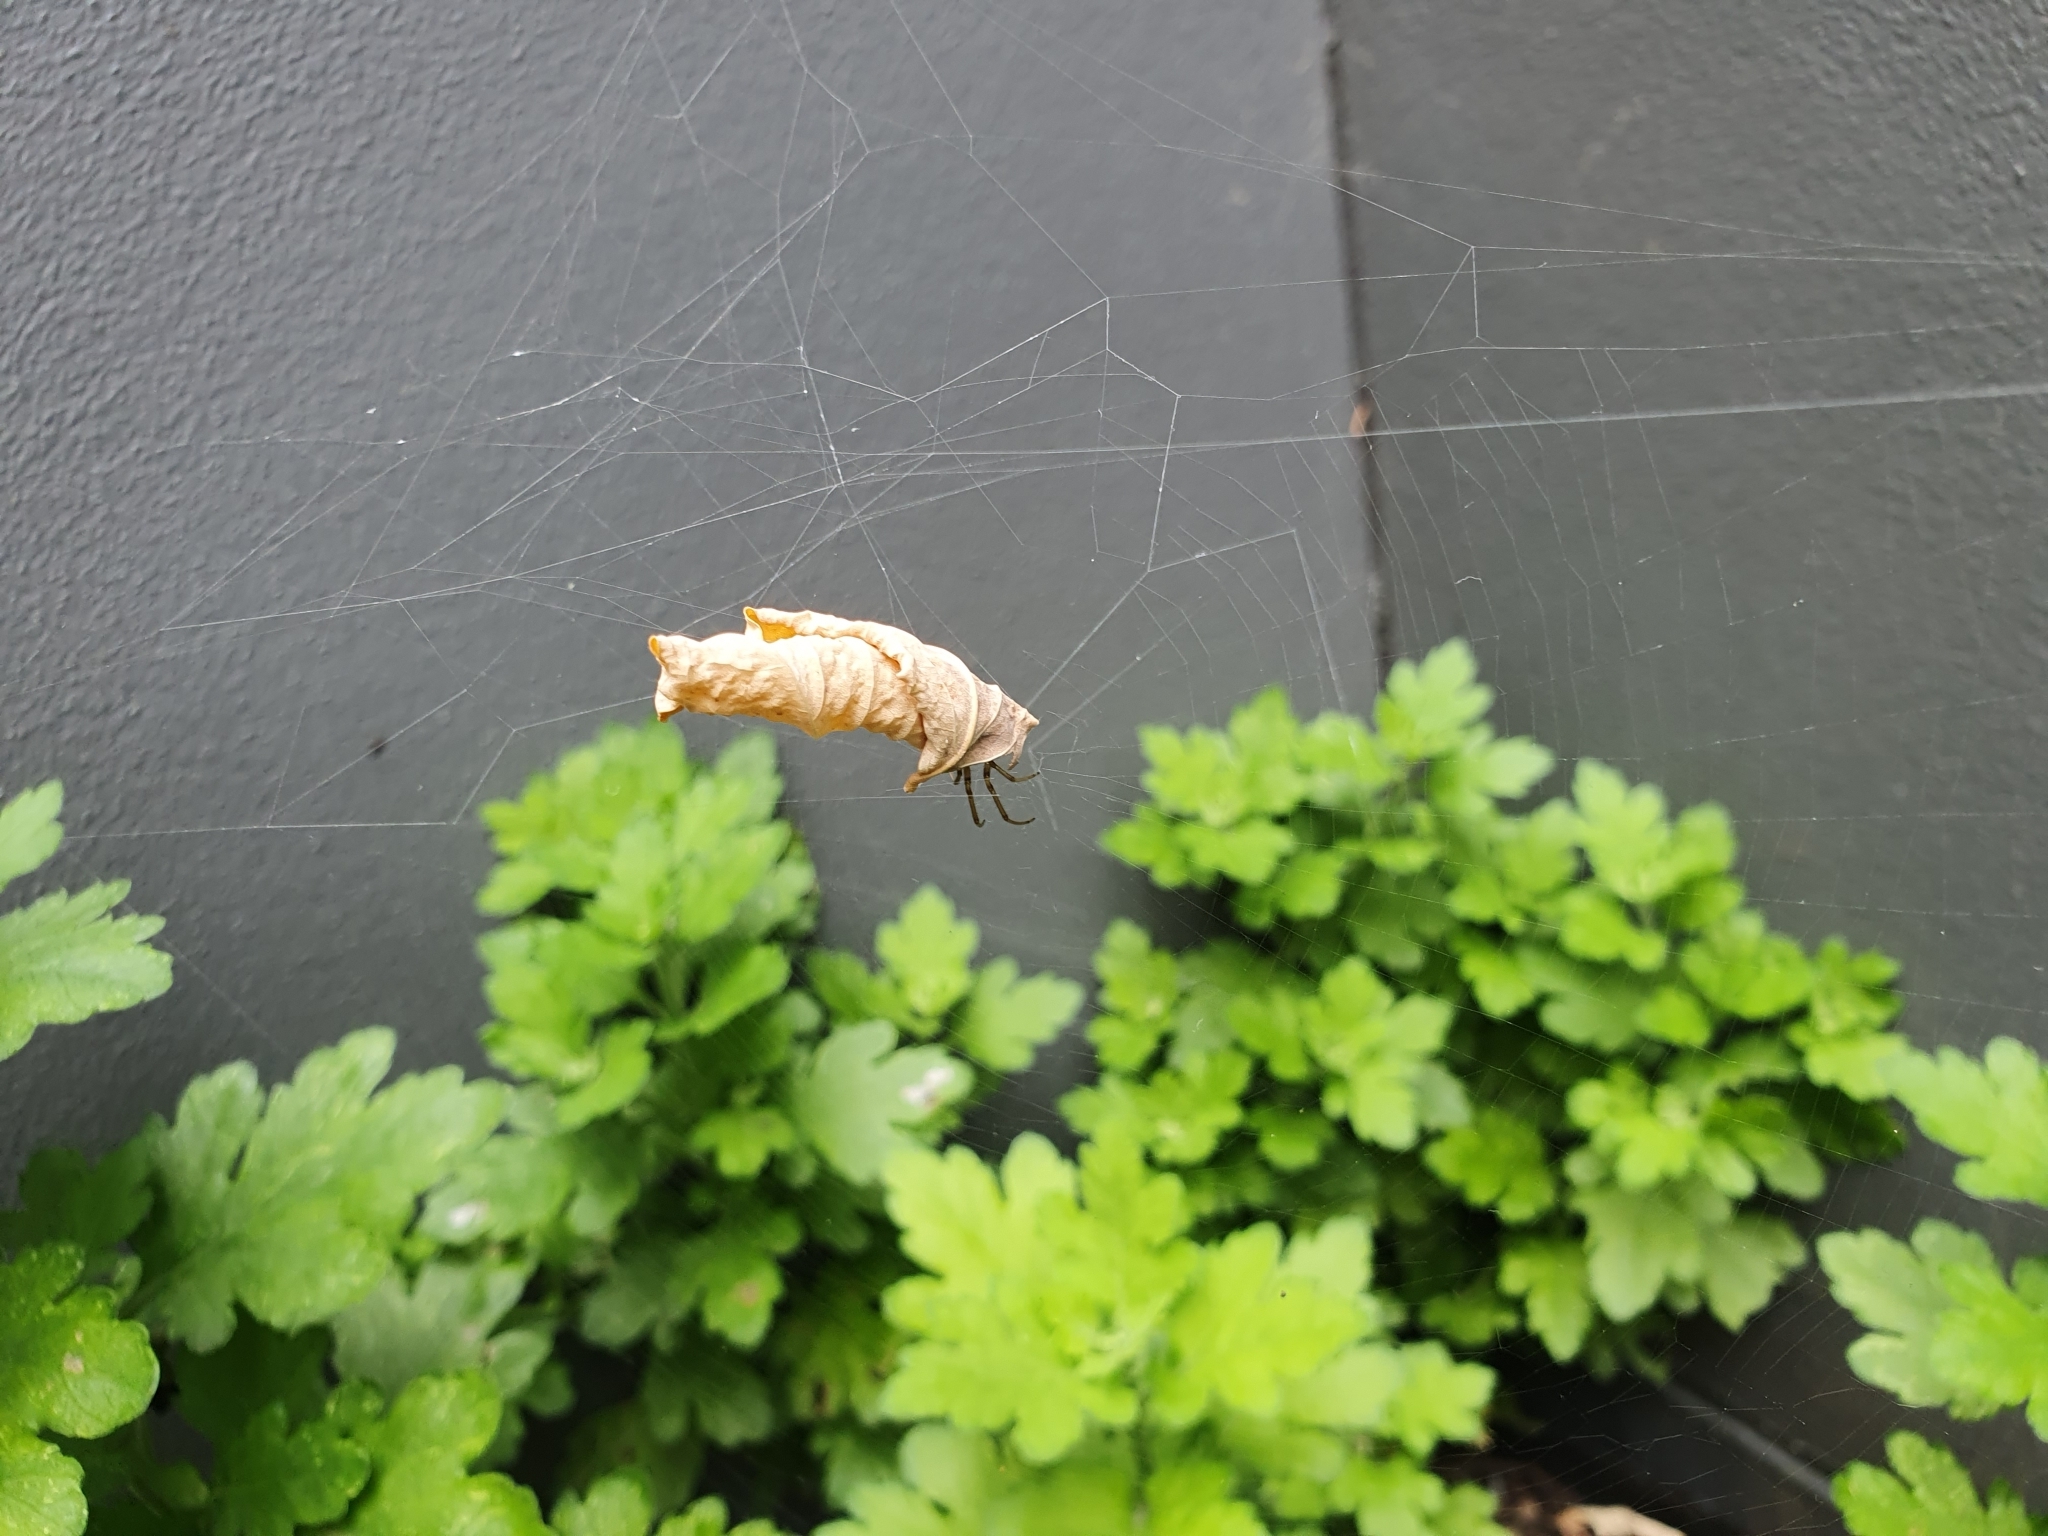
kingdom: Animalia
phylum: Arthropoda
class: Arachnida
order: Araneae
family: Araneidae
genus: Phonognatha
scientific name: Phonognatha graeffei
